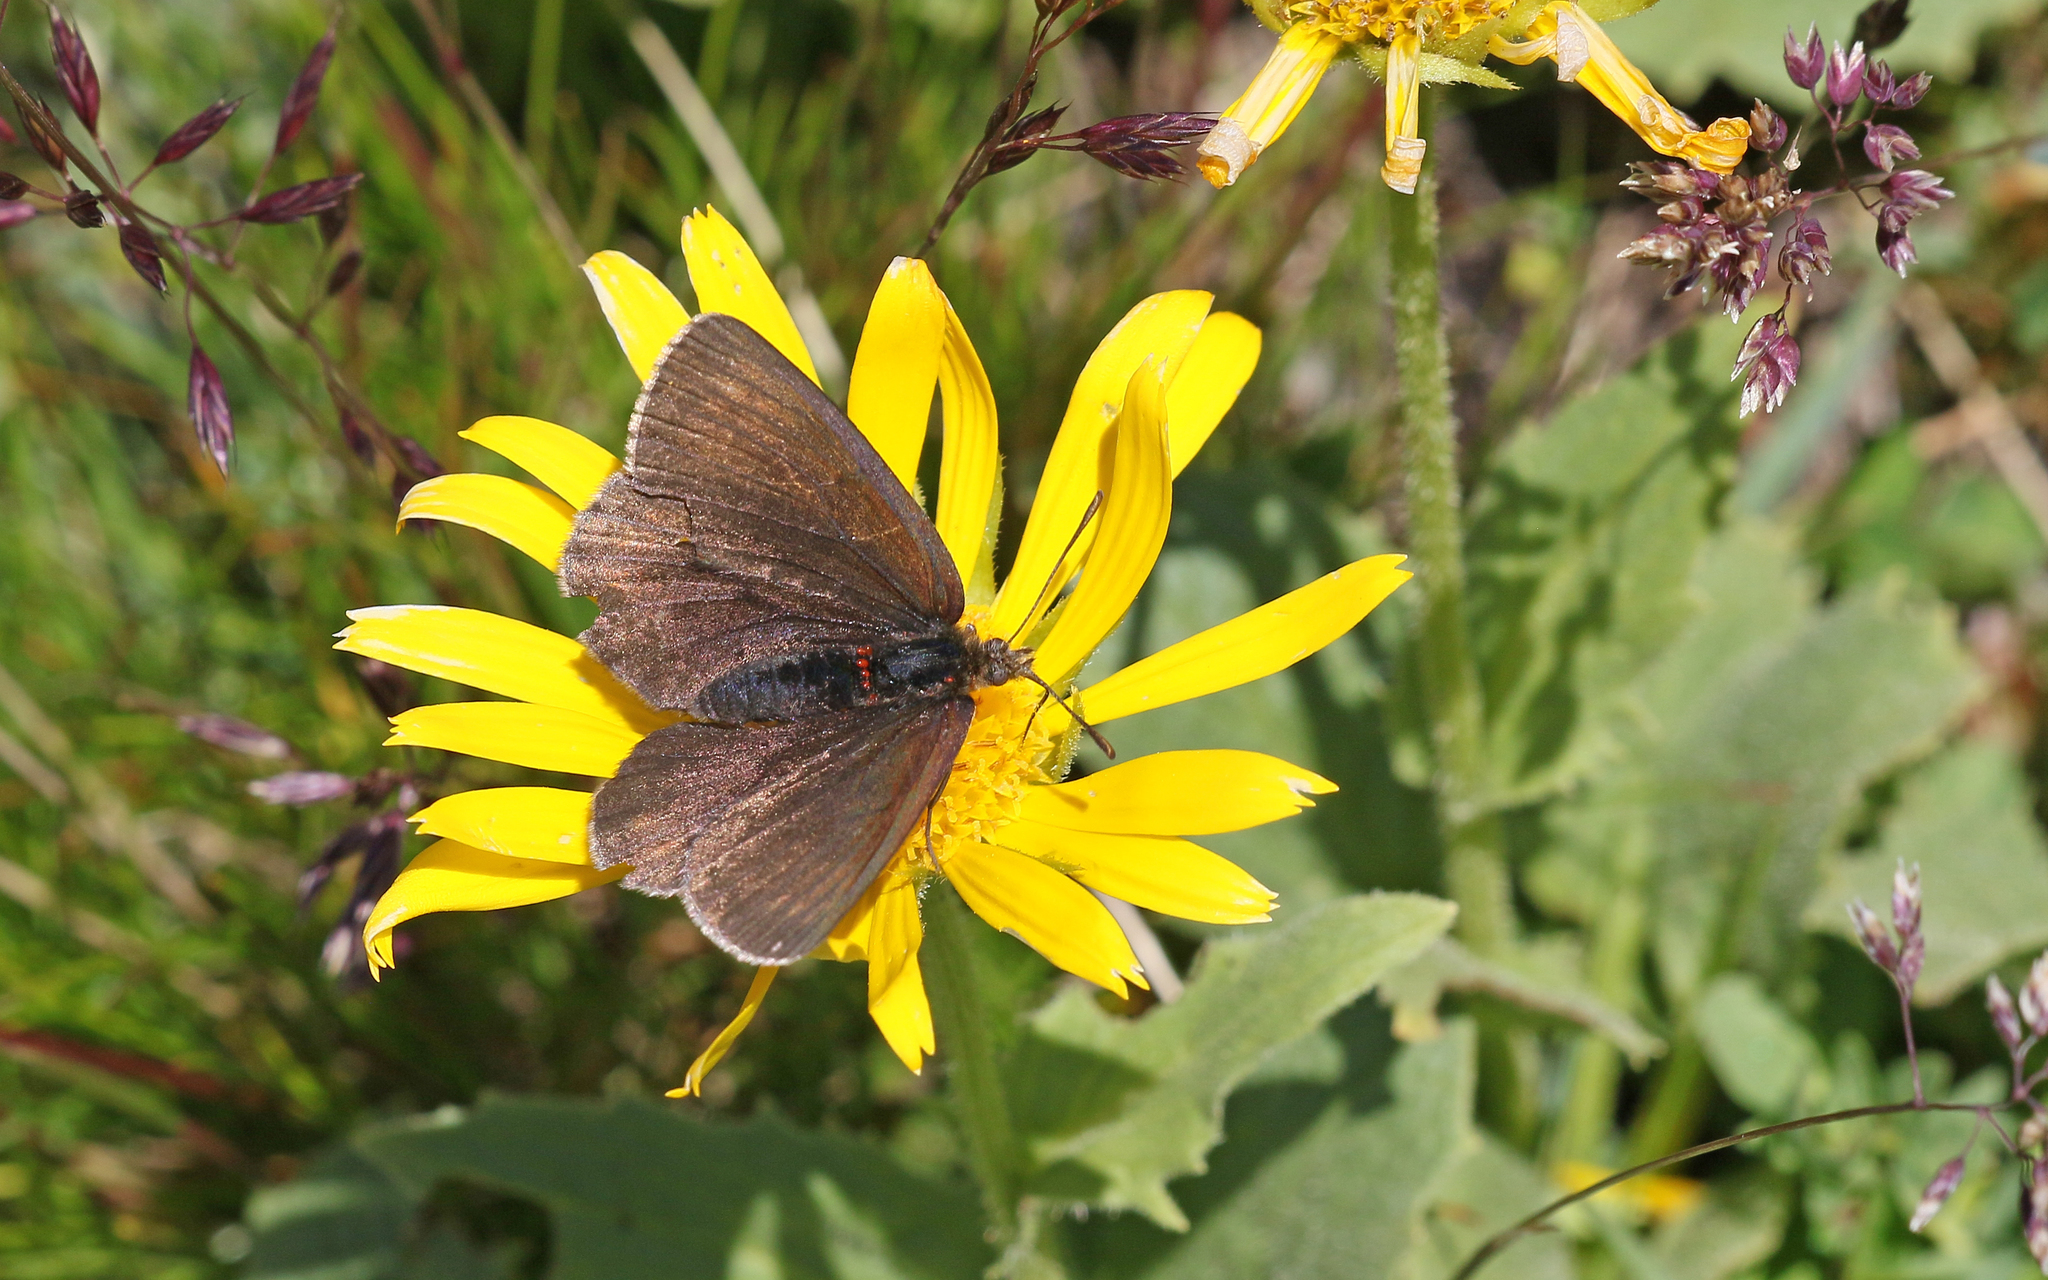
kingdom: Animalia
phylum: Arthropoda
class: Insecta
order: Lepidoptera
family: Nymphalidae
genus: Erebia
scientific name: Erebia pluto
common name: Sooty ringlet
